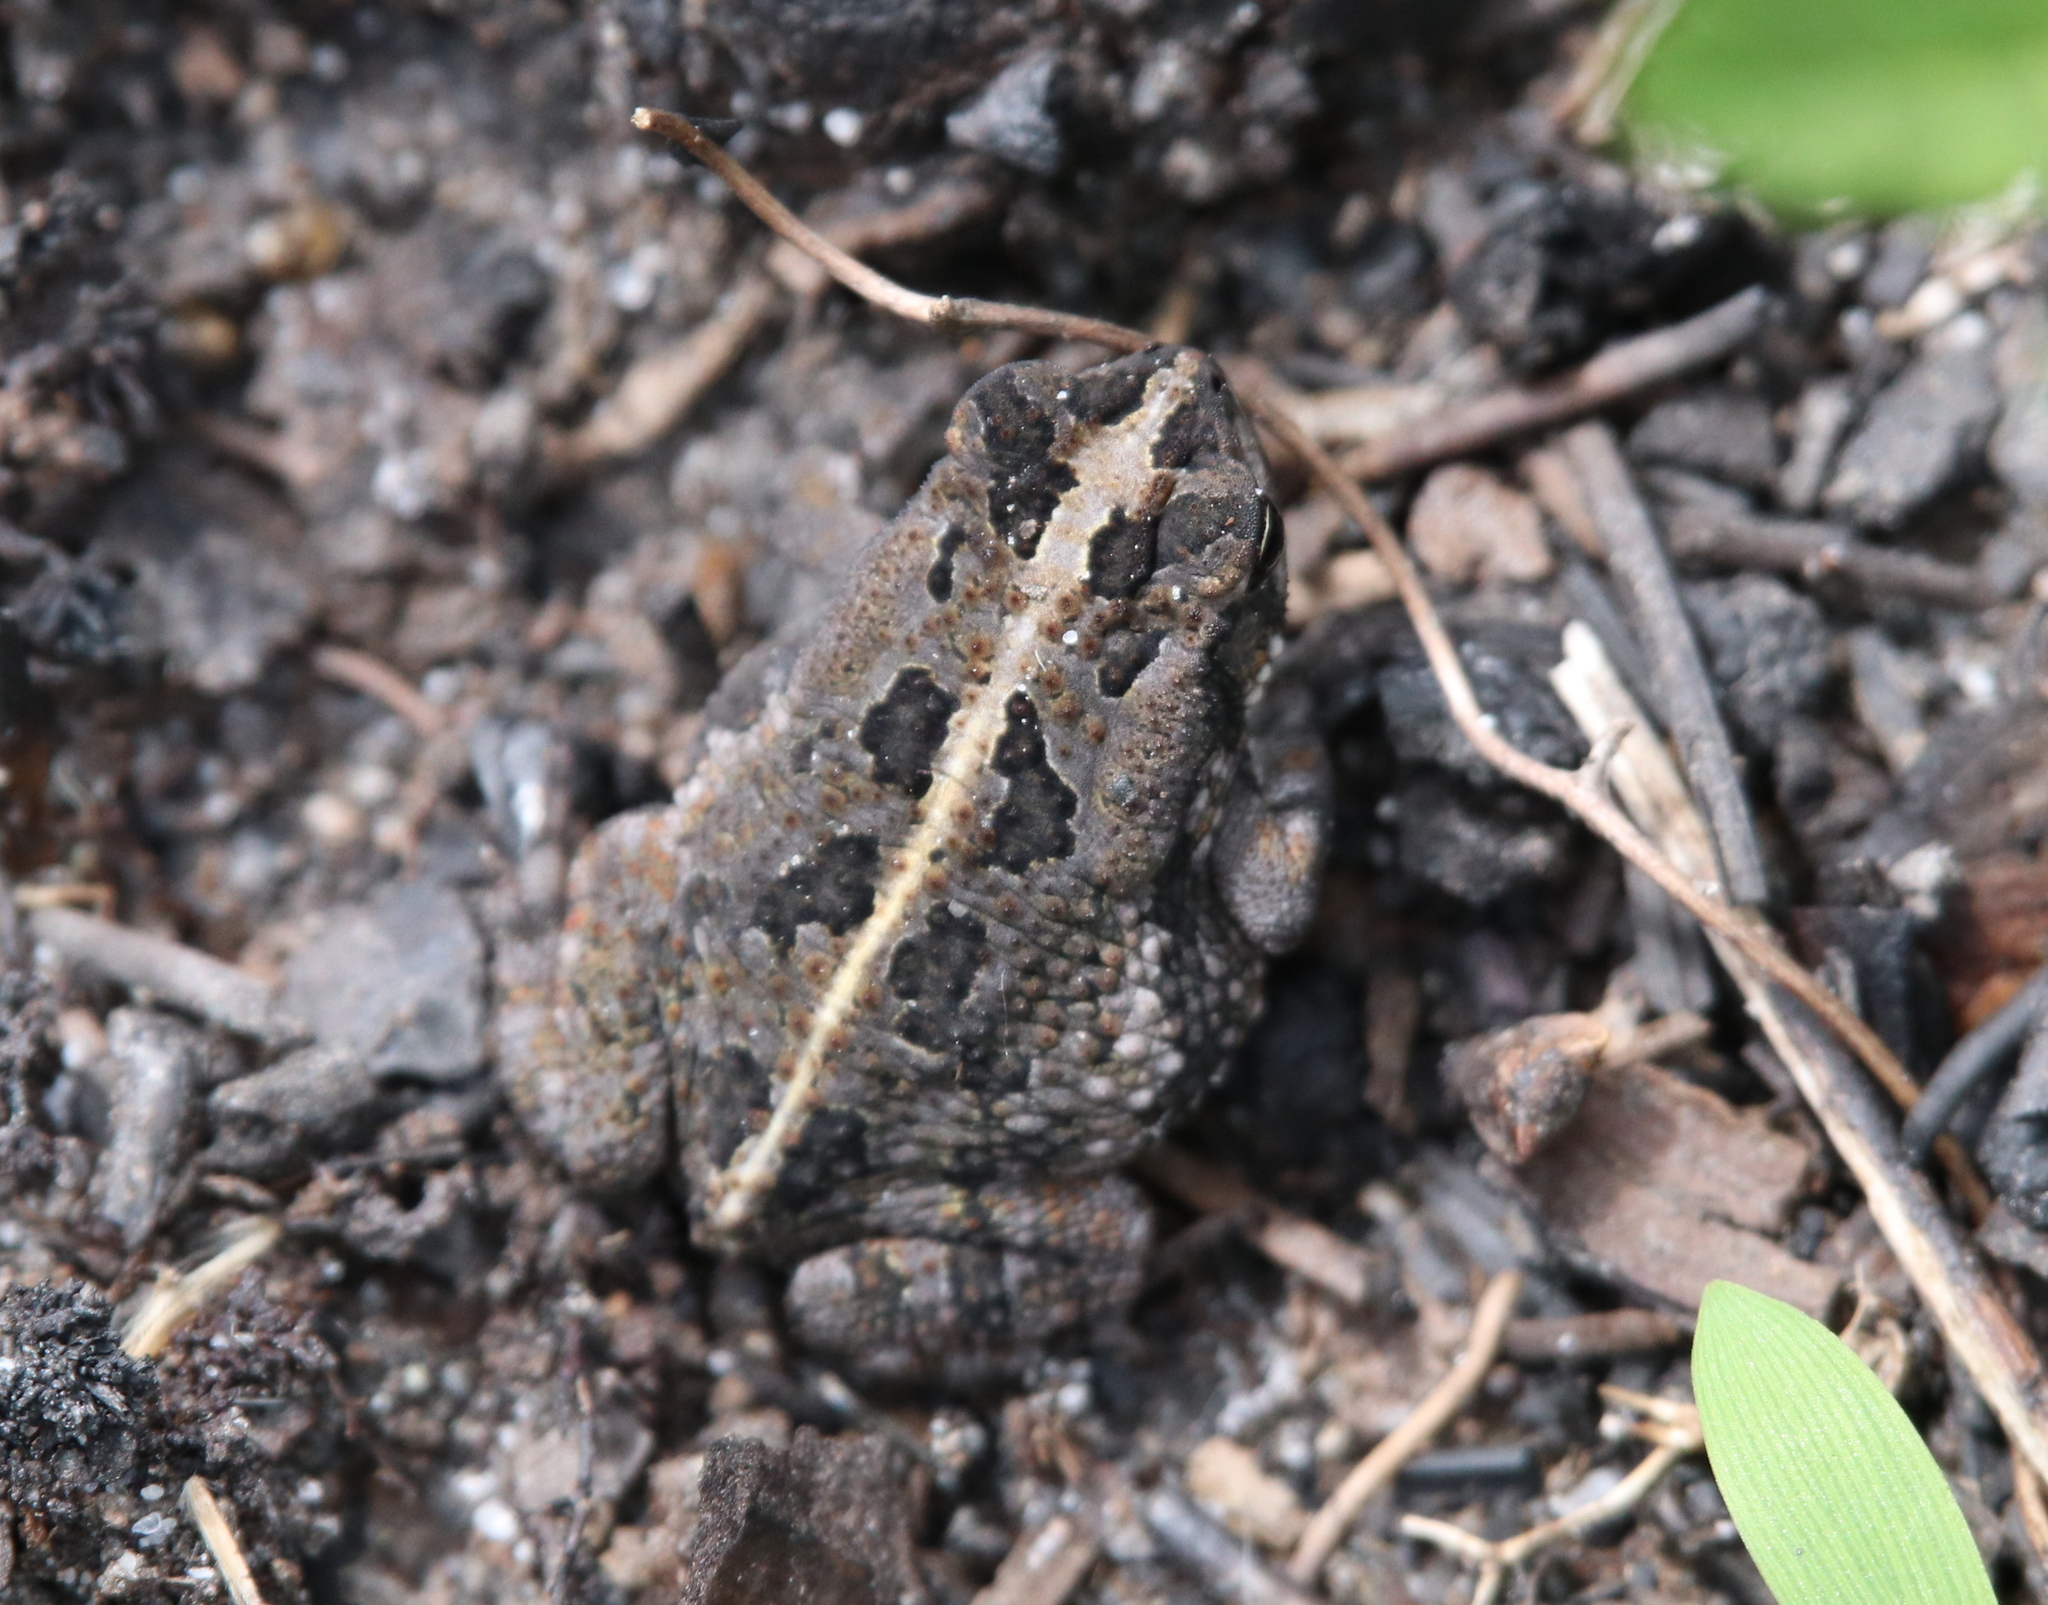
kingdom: Animalia
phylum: Chordata
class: Amphibia
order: Anura
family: Bufonidae
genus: Anaxyrus
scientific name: Anaxyrus quercicus
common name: Oak toad
